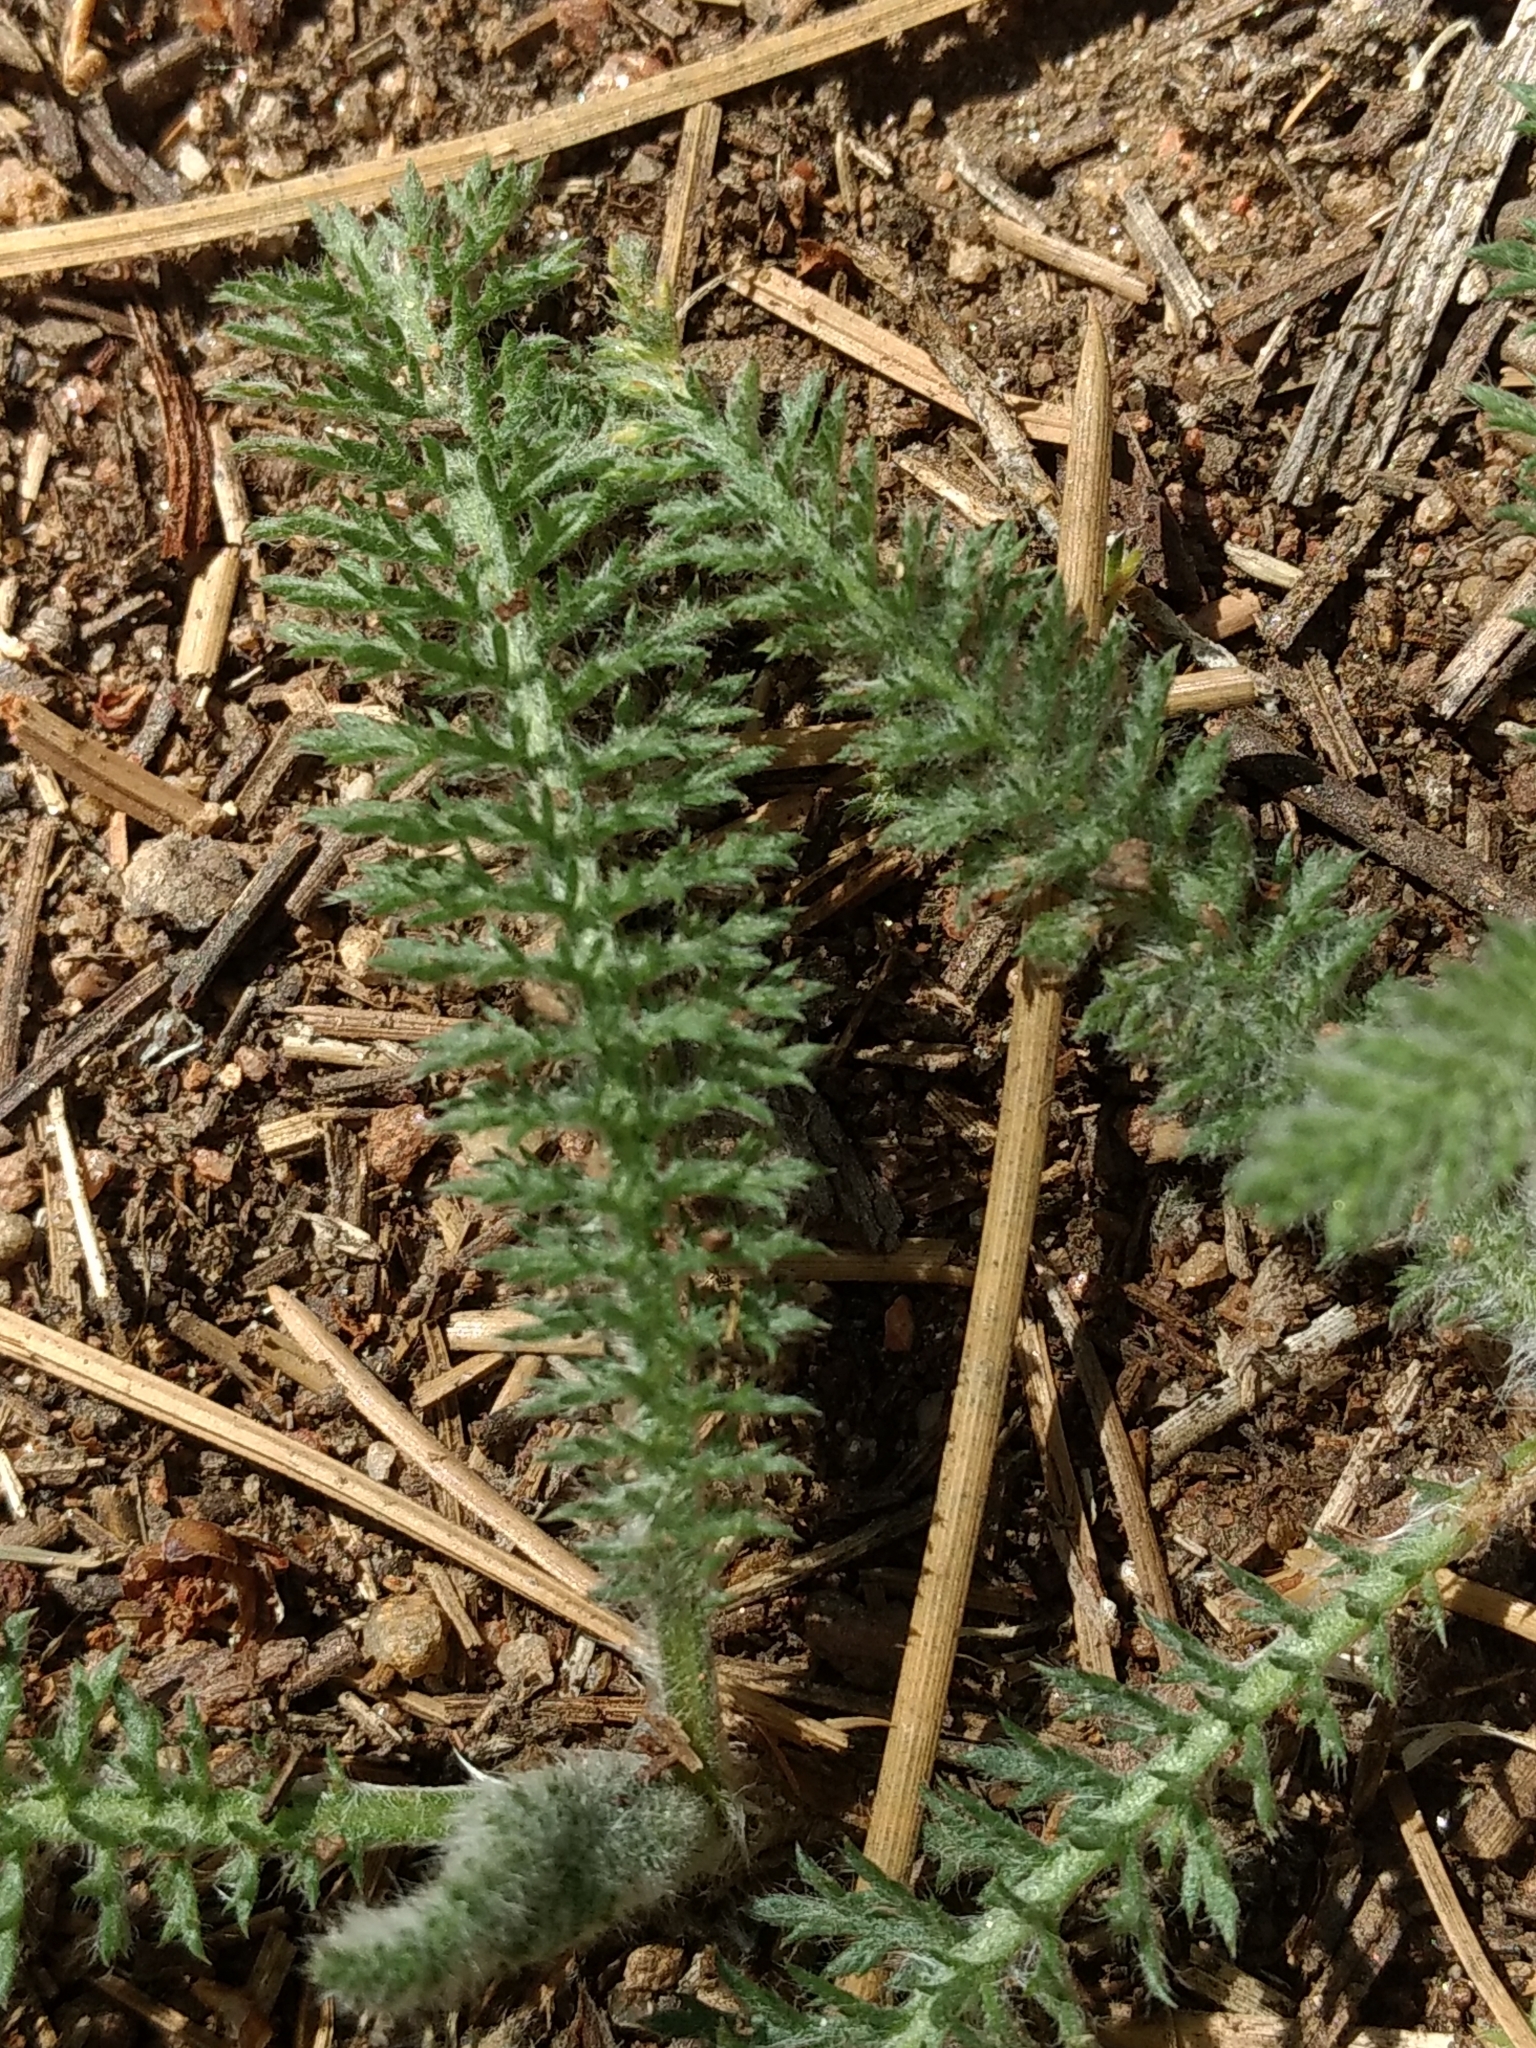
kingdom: Plantae
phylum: Tracheophyta
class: Magnoliopsida
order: Asterales
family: Asteraceae
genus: Achillea
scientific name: Achillea millefolium
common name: Yarrow
